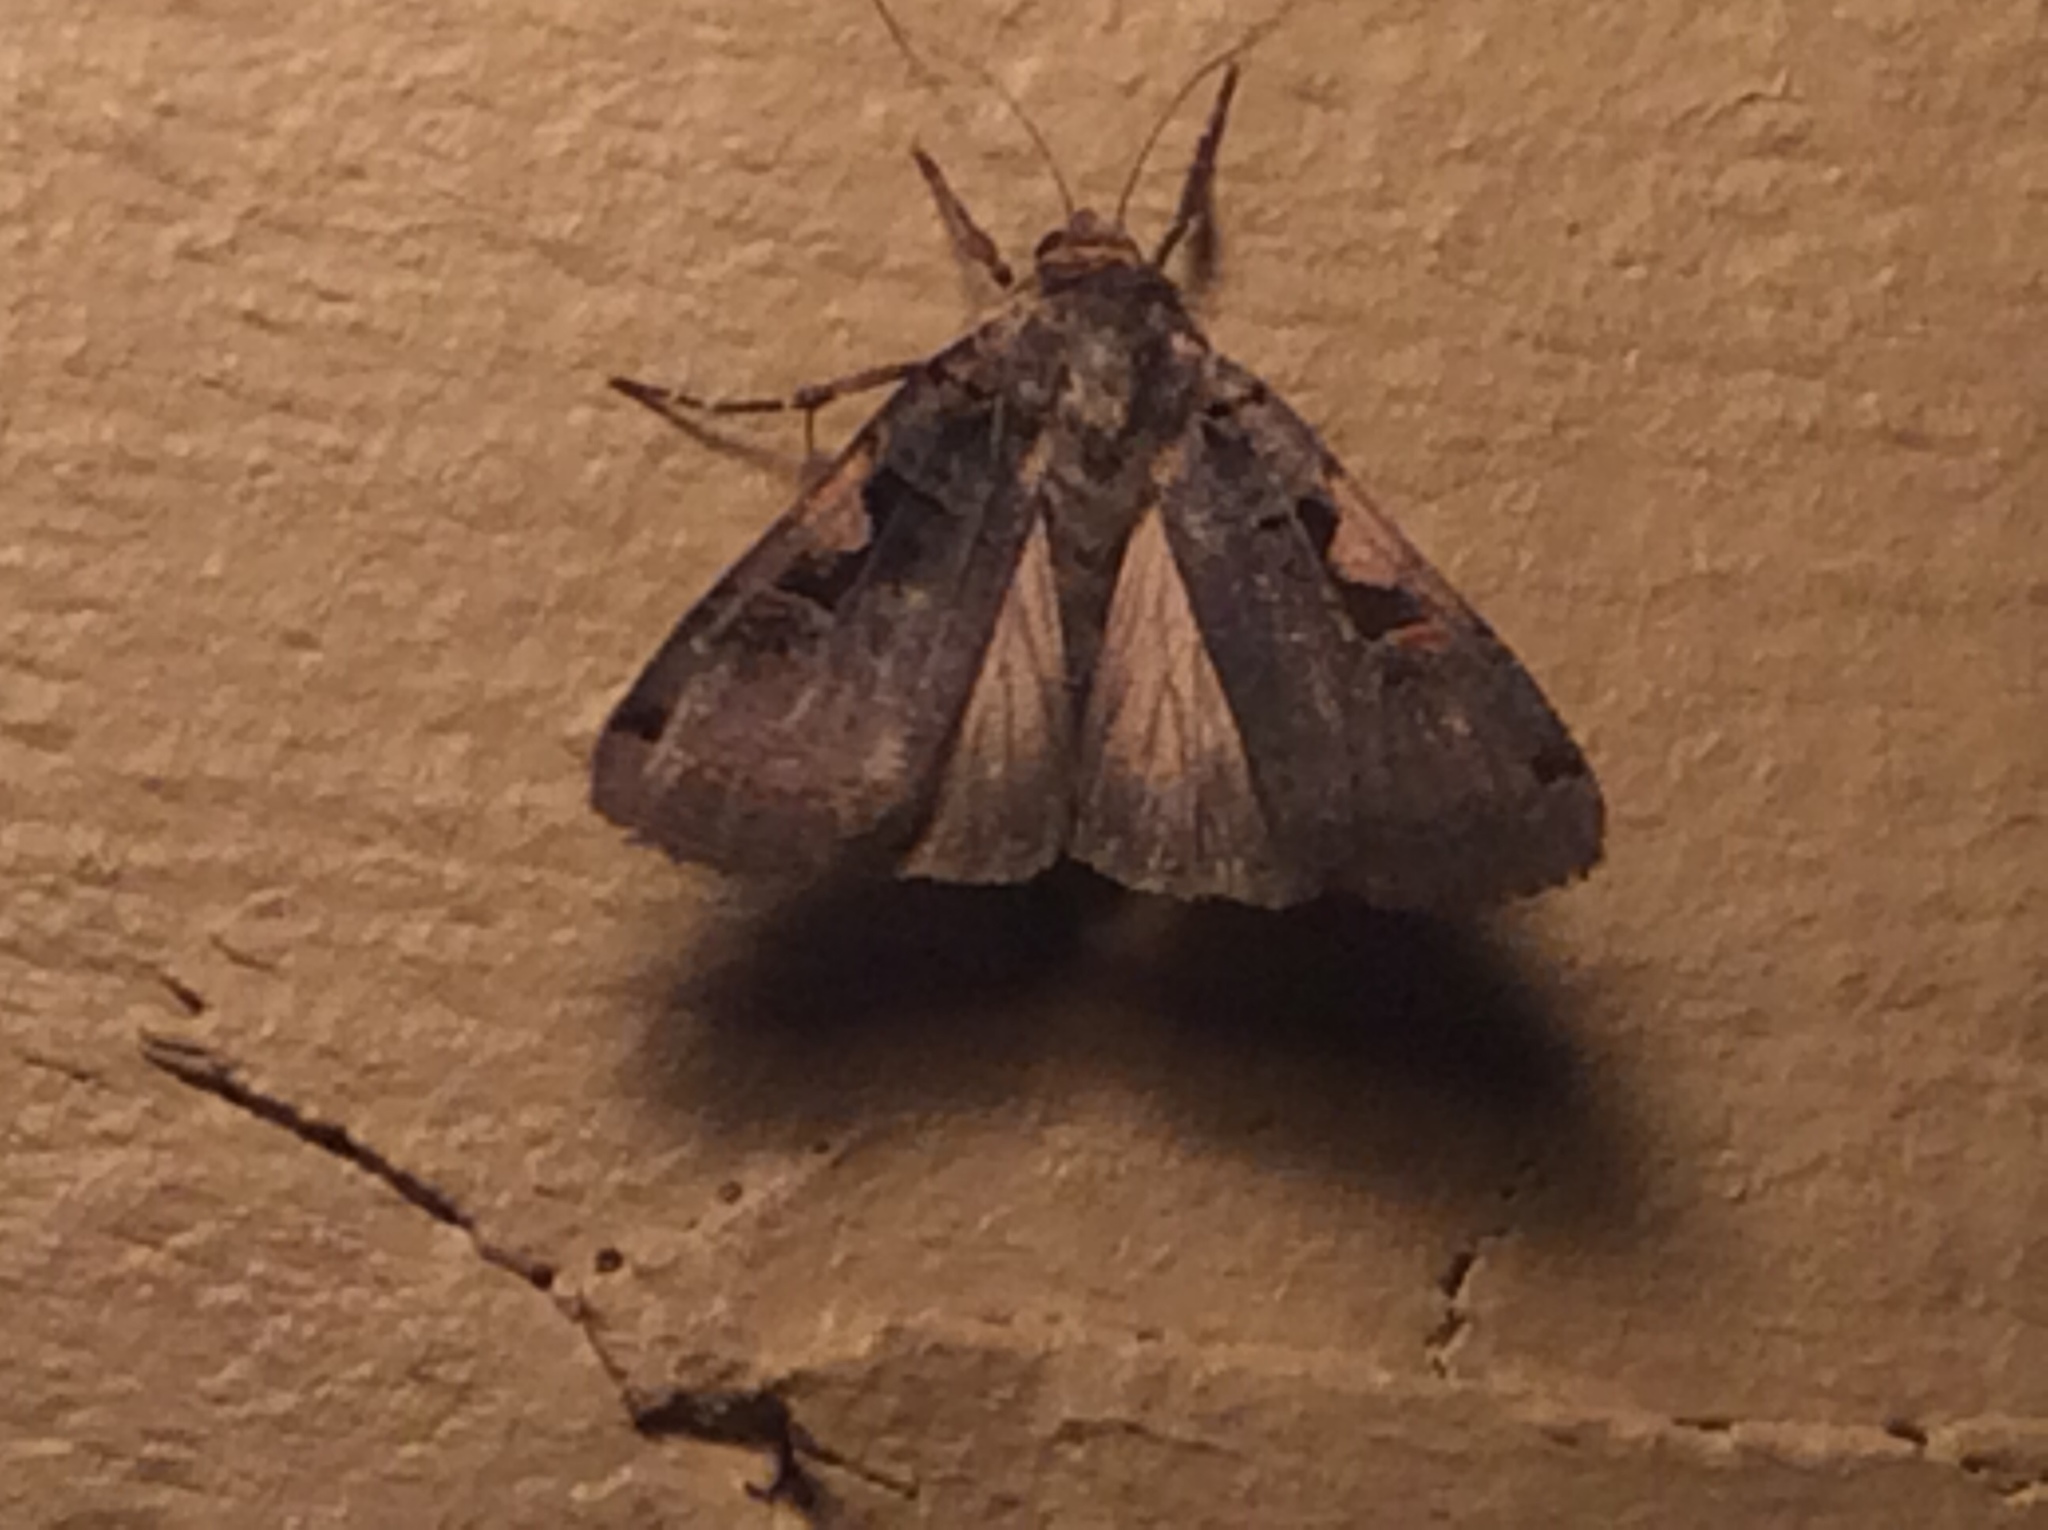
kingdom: Animalia
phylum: Arthropoda
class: Insecta
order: Lepidoptera
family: Noctuidae
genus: Xestia
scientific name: Xestia dolosa
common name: Cutworm moth
